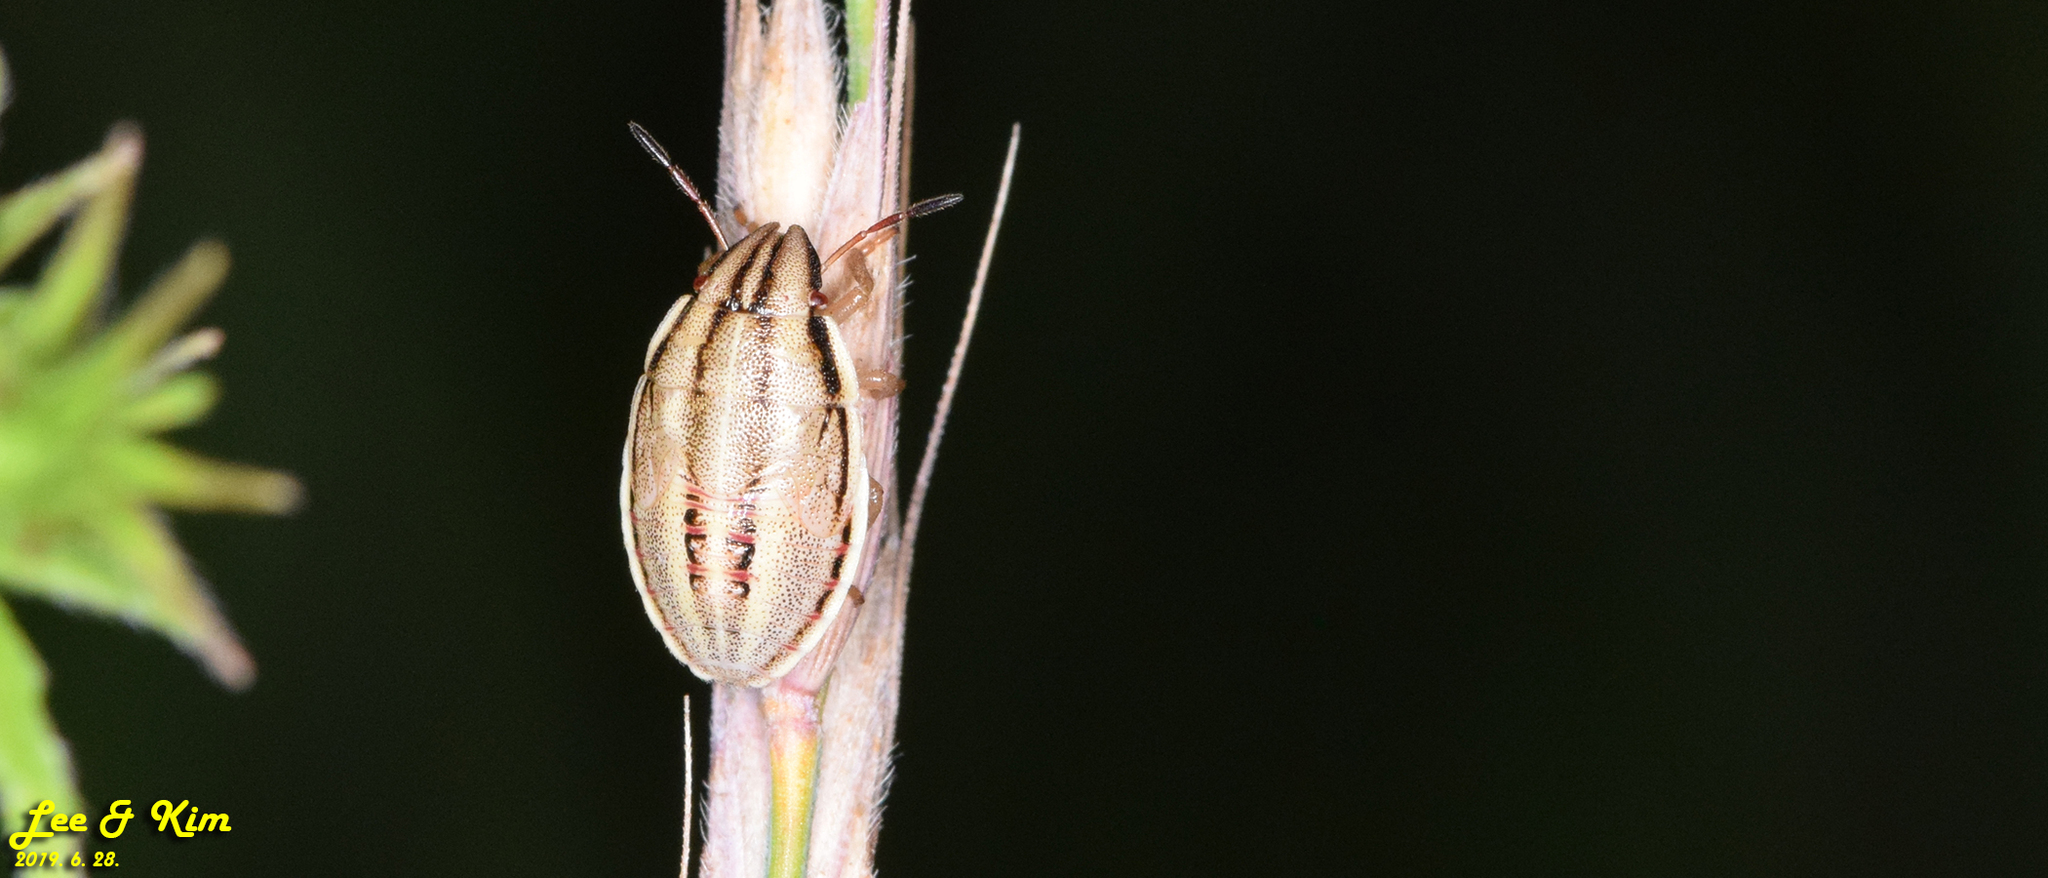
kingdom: Animalia
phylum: Arthropoda
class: Insecta
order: Hemiptera
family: Pentatomidae
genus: Aelia
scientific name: Aelia
